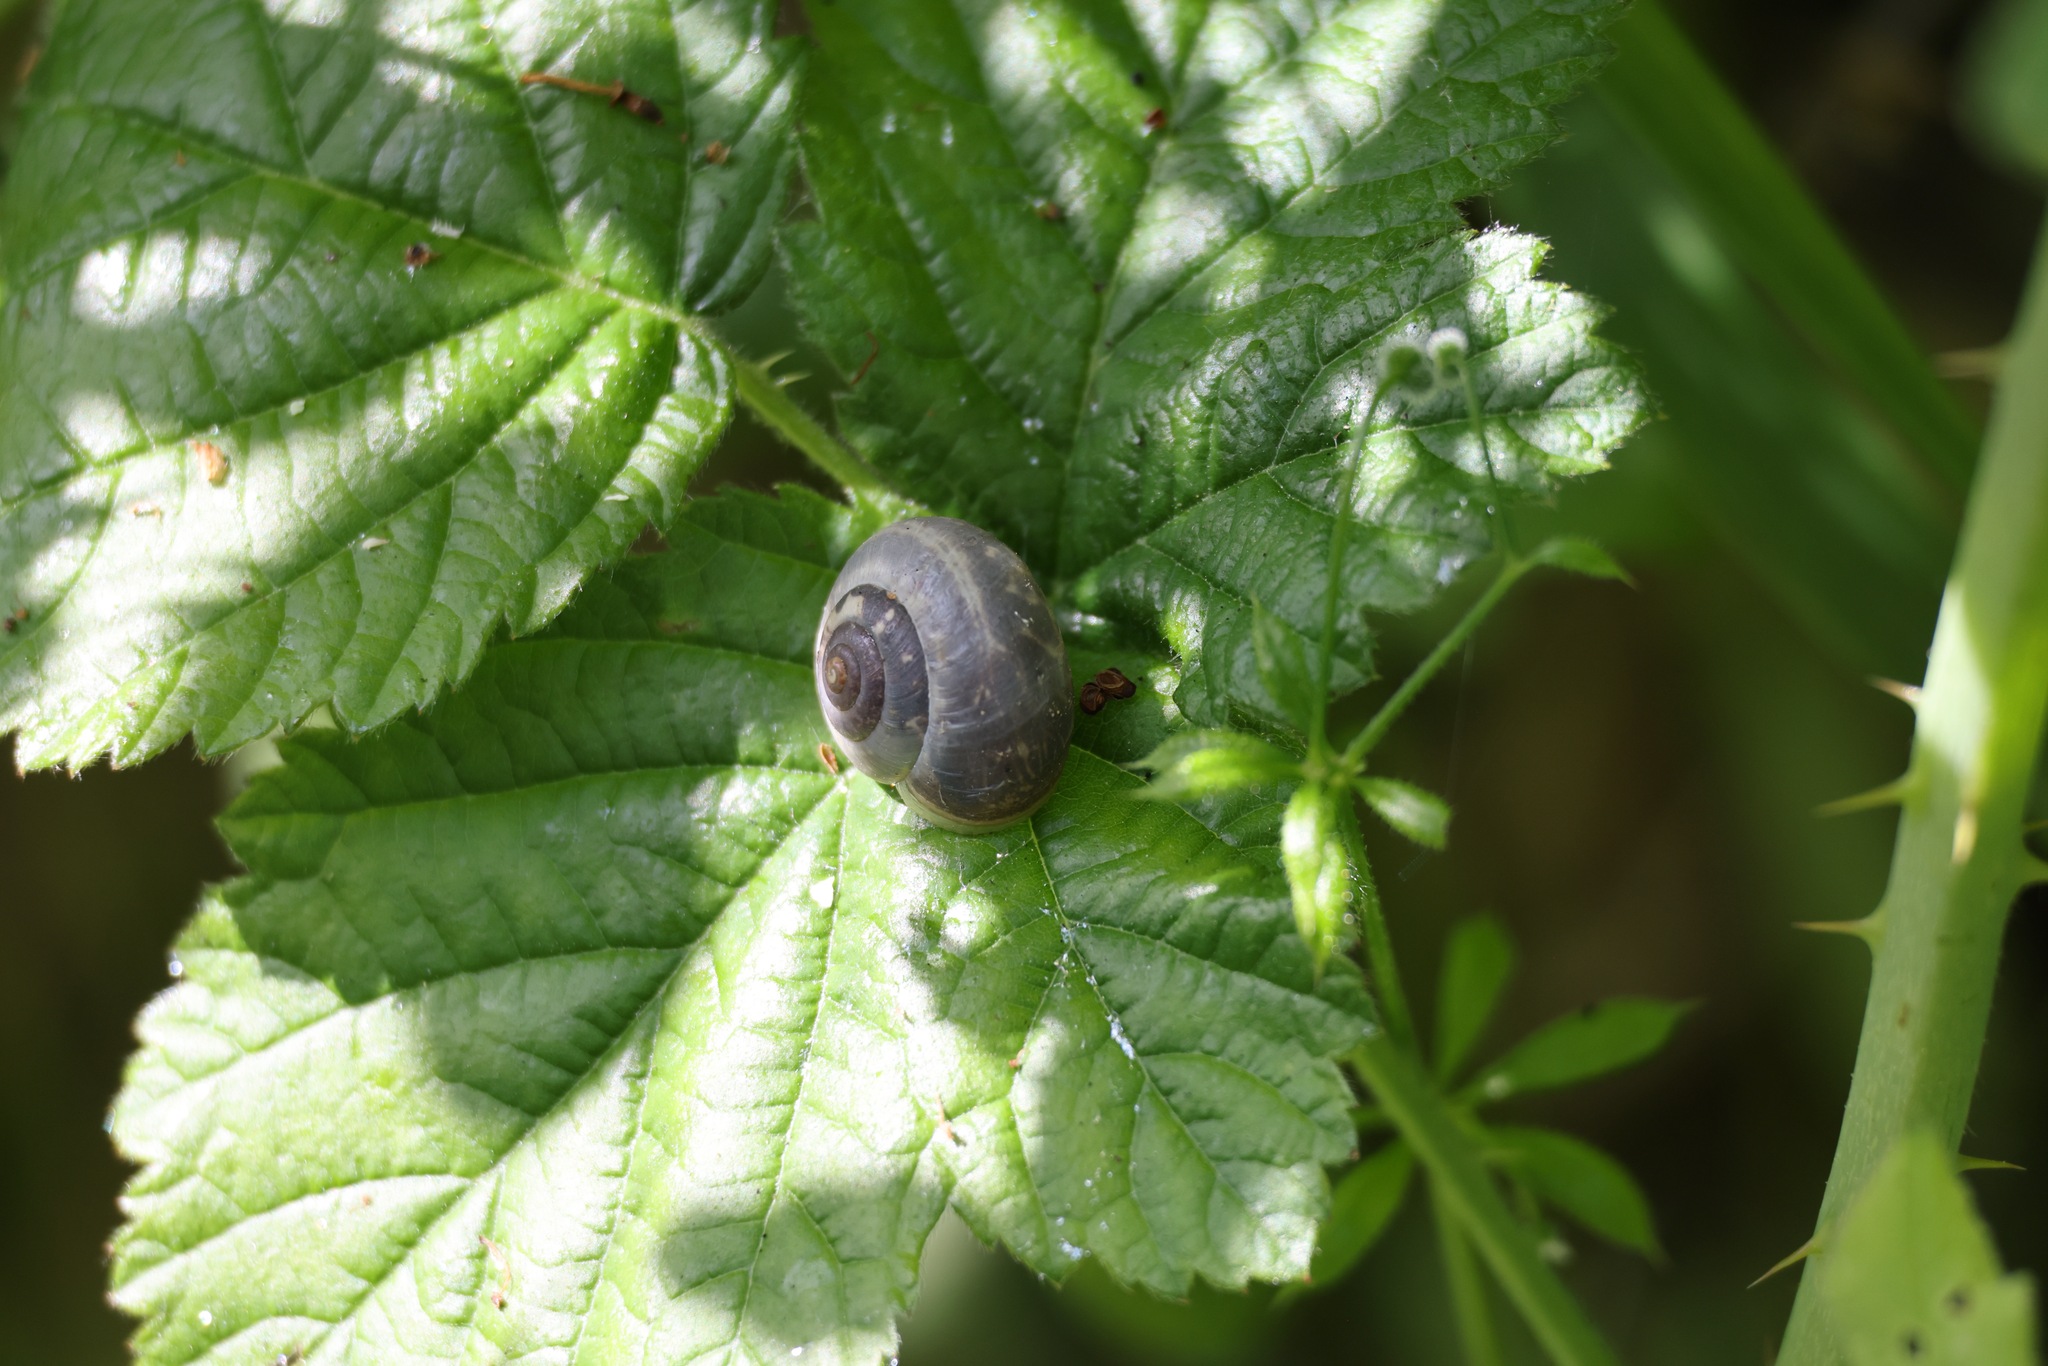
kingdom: Animalia
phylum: Mollusca
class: Gastropoda
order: Stylommatophora
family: Hygromiidae
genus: Monacha
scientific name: Monacha cantiana
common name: Kentish snail
